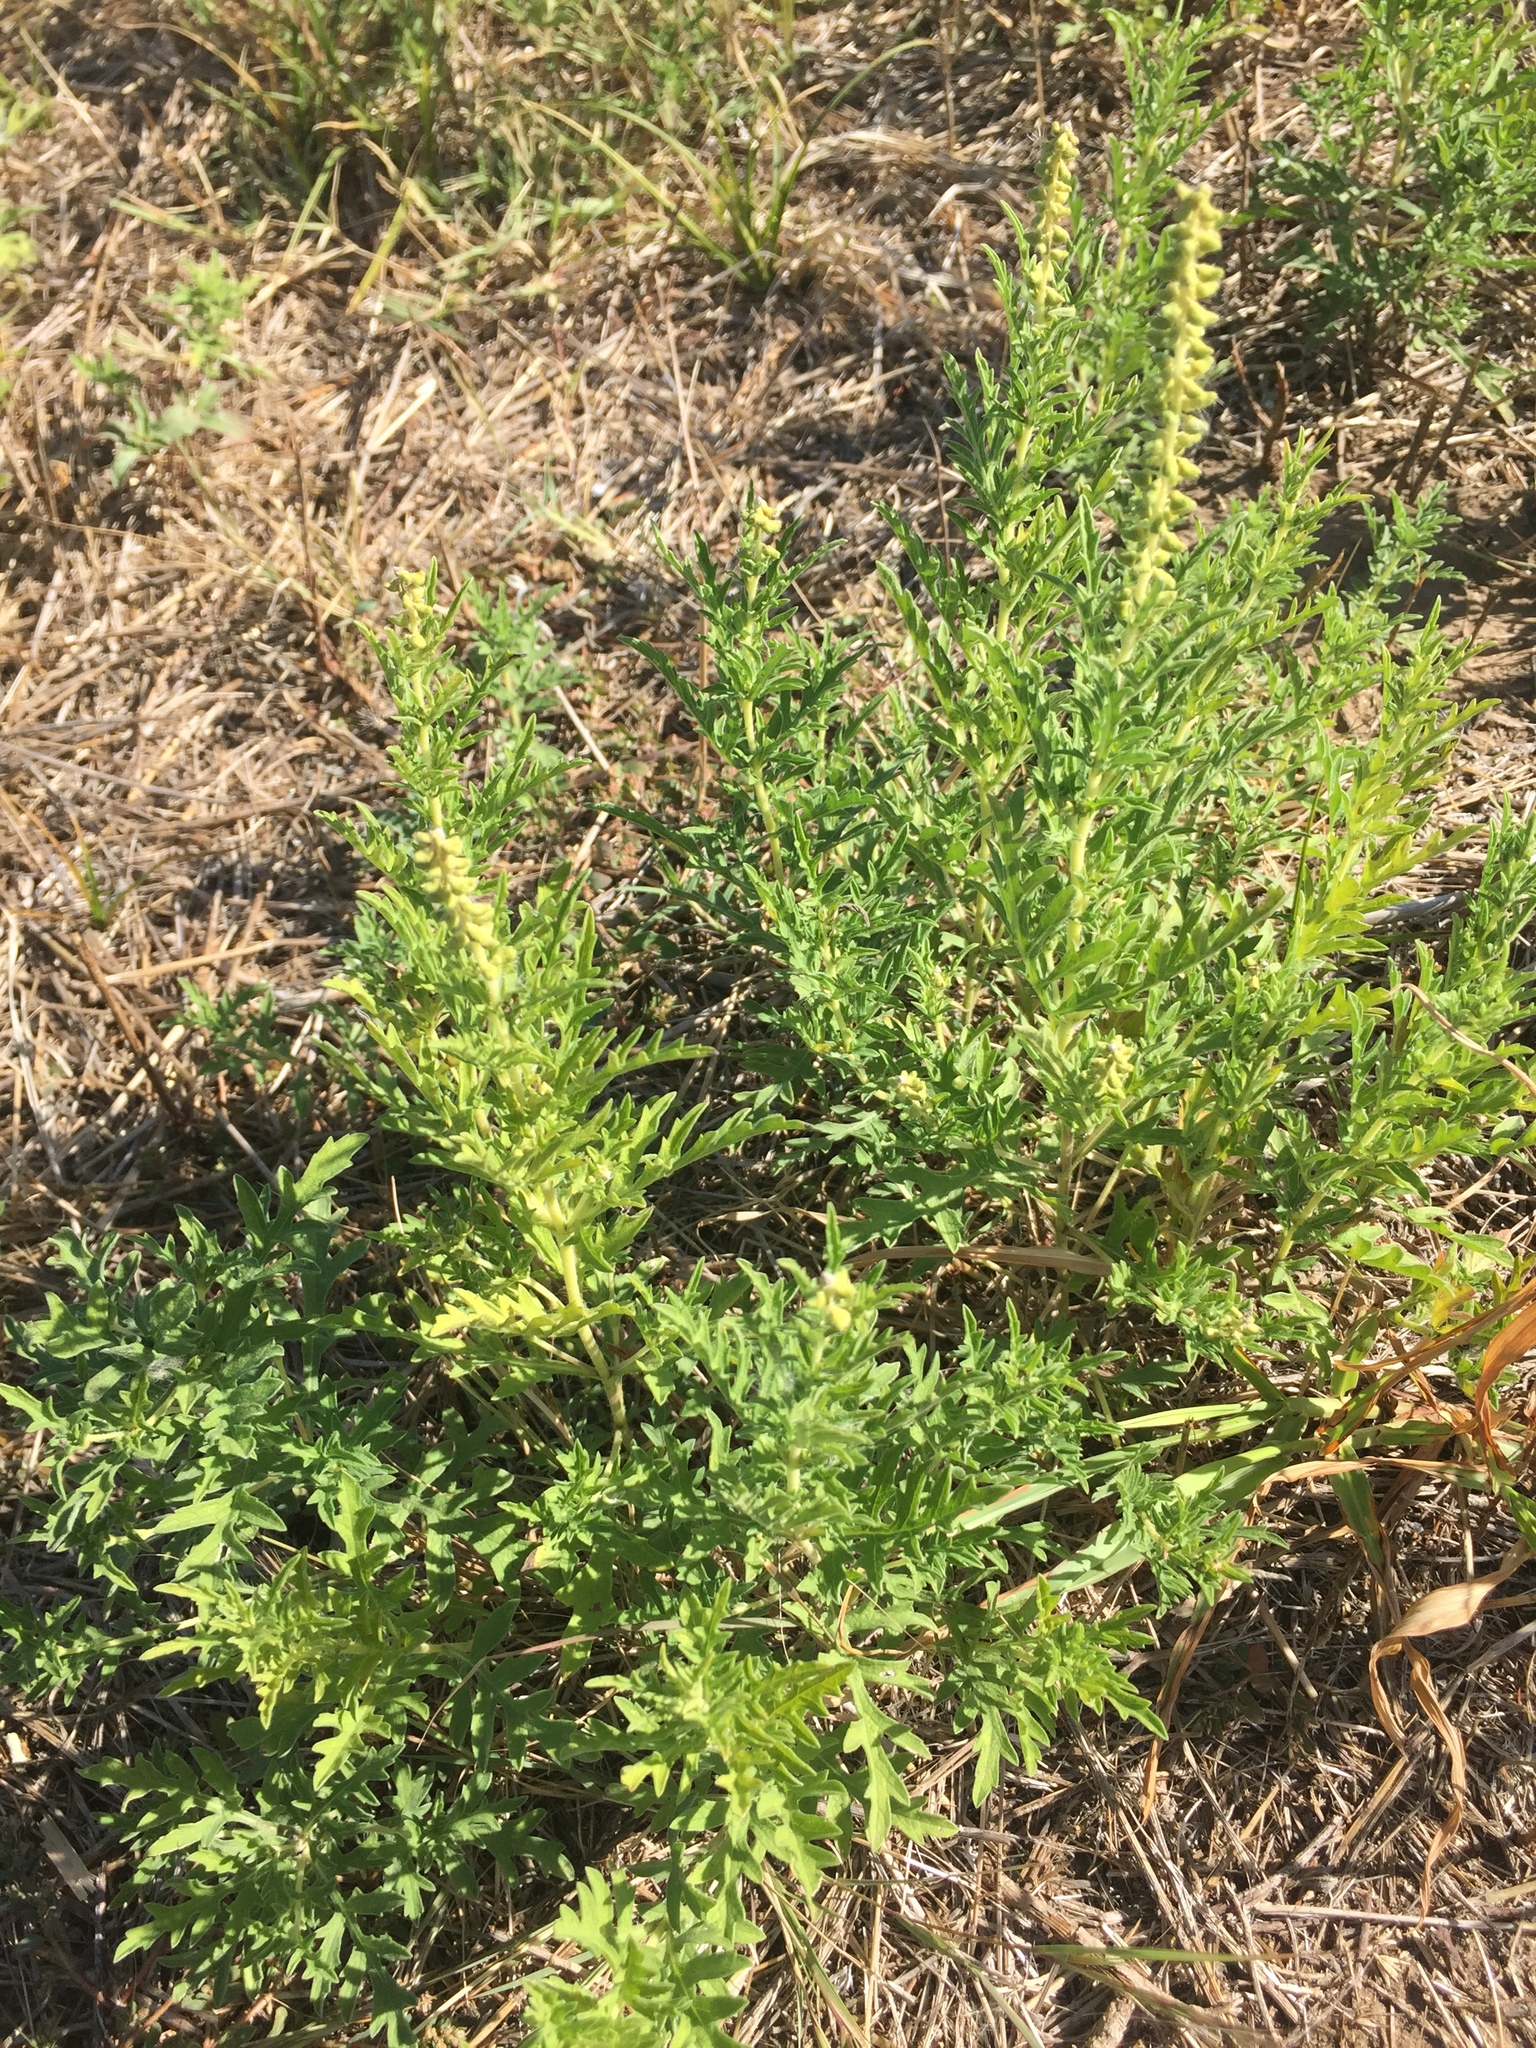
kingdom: Plantae
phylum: Tracheophyta
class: Magnoliopsida
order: Asterales
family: Asteraceae
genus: Ambrosia
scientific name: Ambrosia psilostachya
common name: Perennial ragweed
